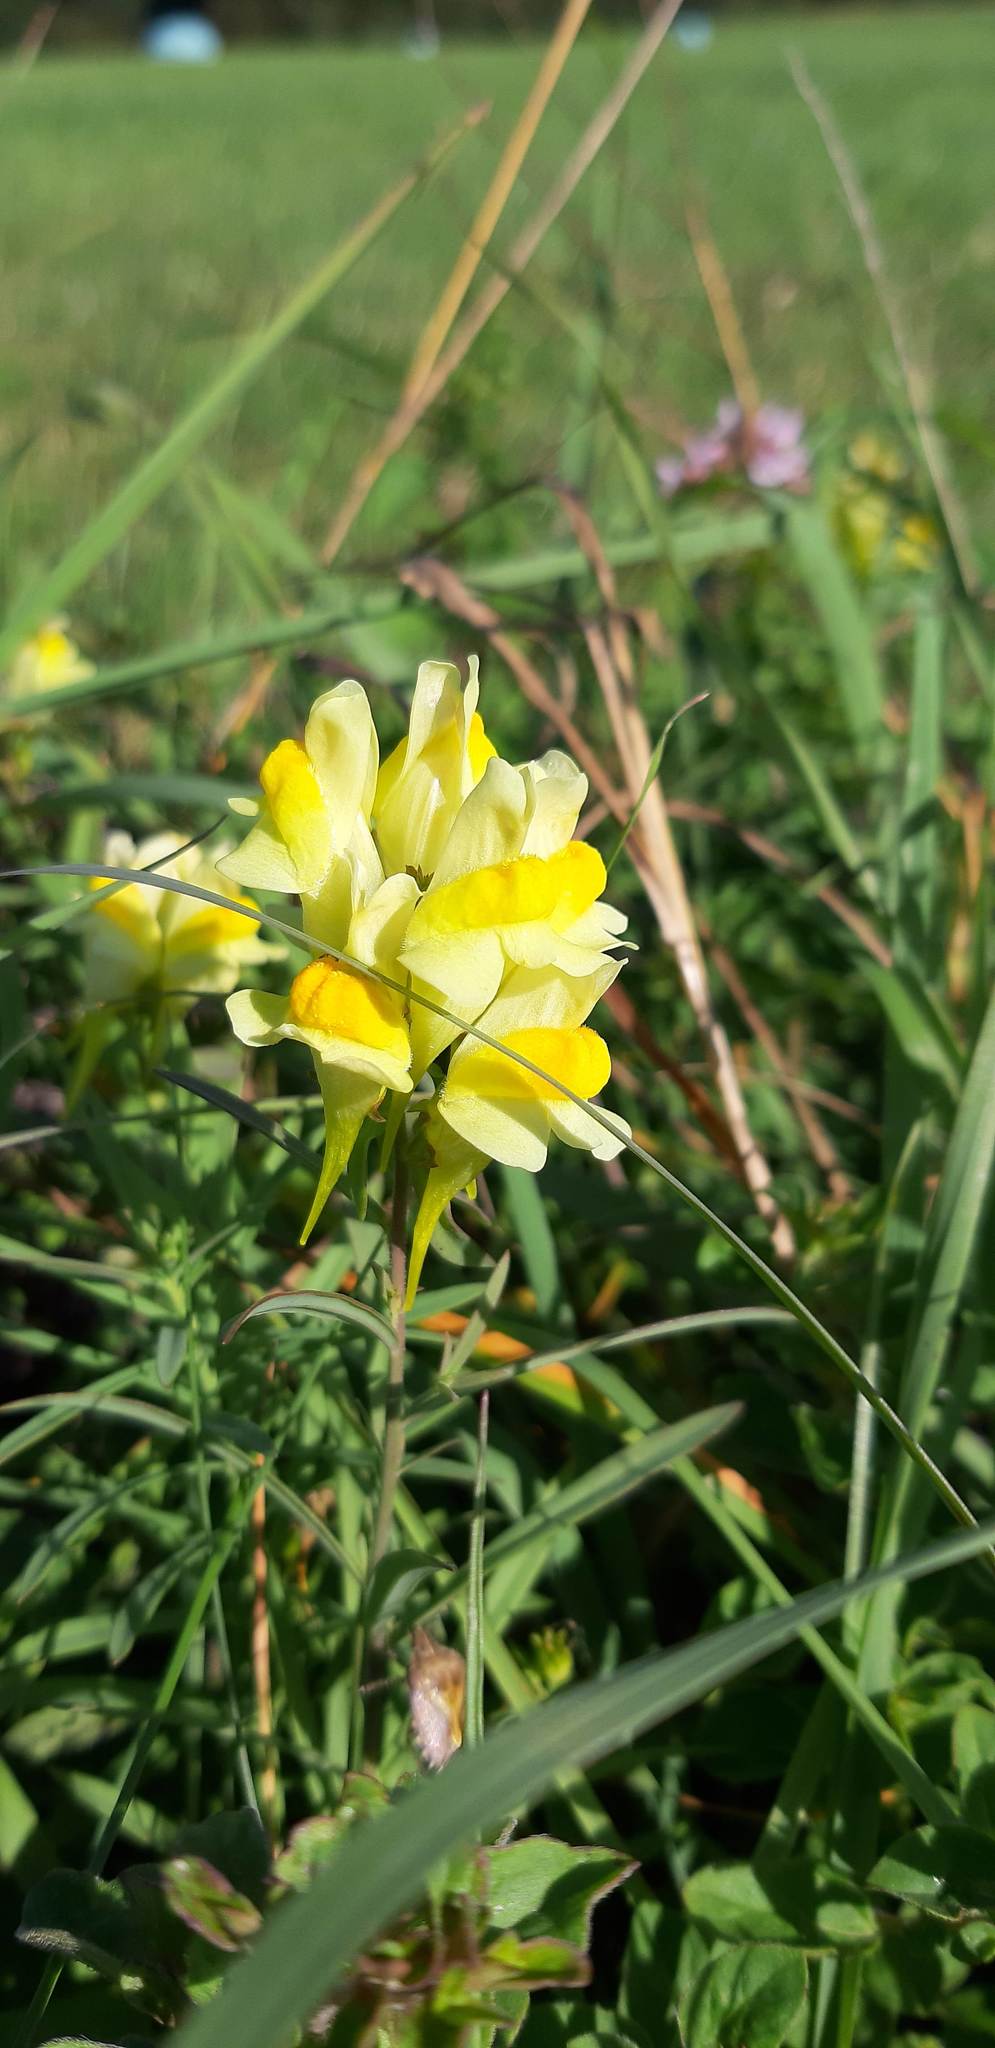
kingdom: Plantae
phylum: Tracheophyta
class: Magnoliopsida
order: Lamiales
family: Plantaginaceae
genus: Linaria
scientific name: Linaria vulgaris
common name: Butter and eggs
